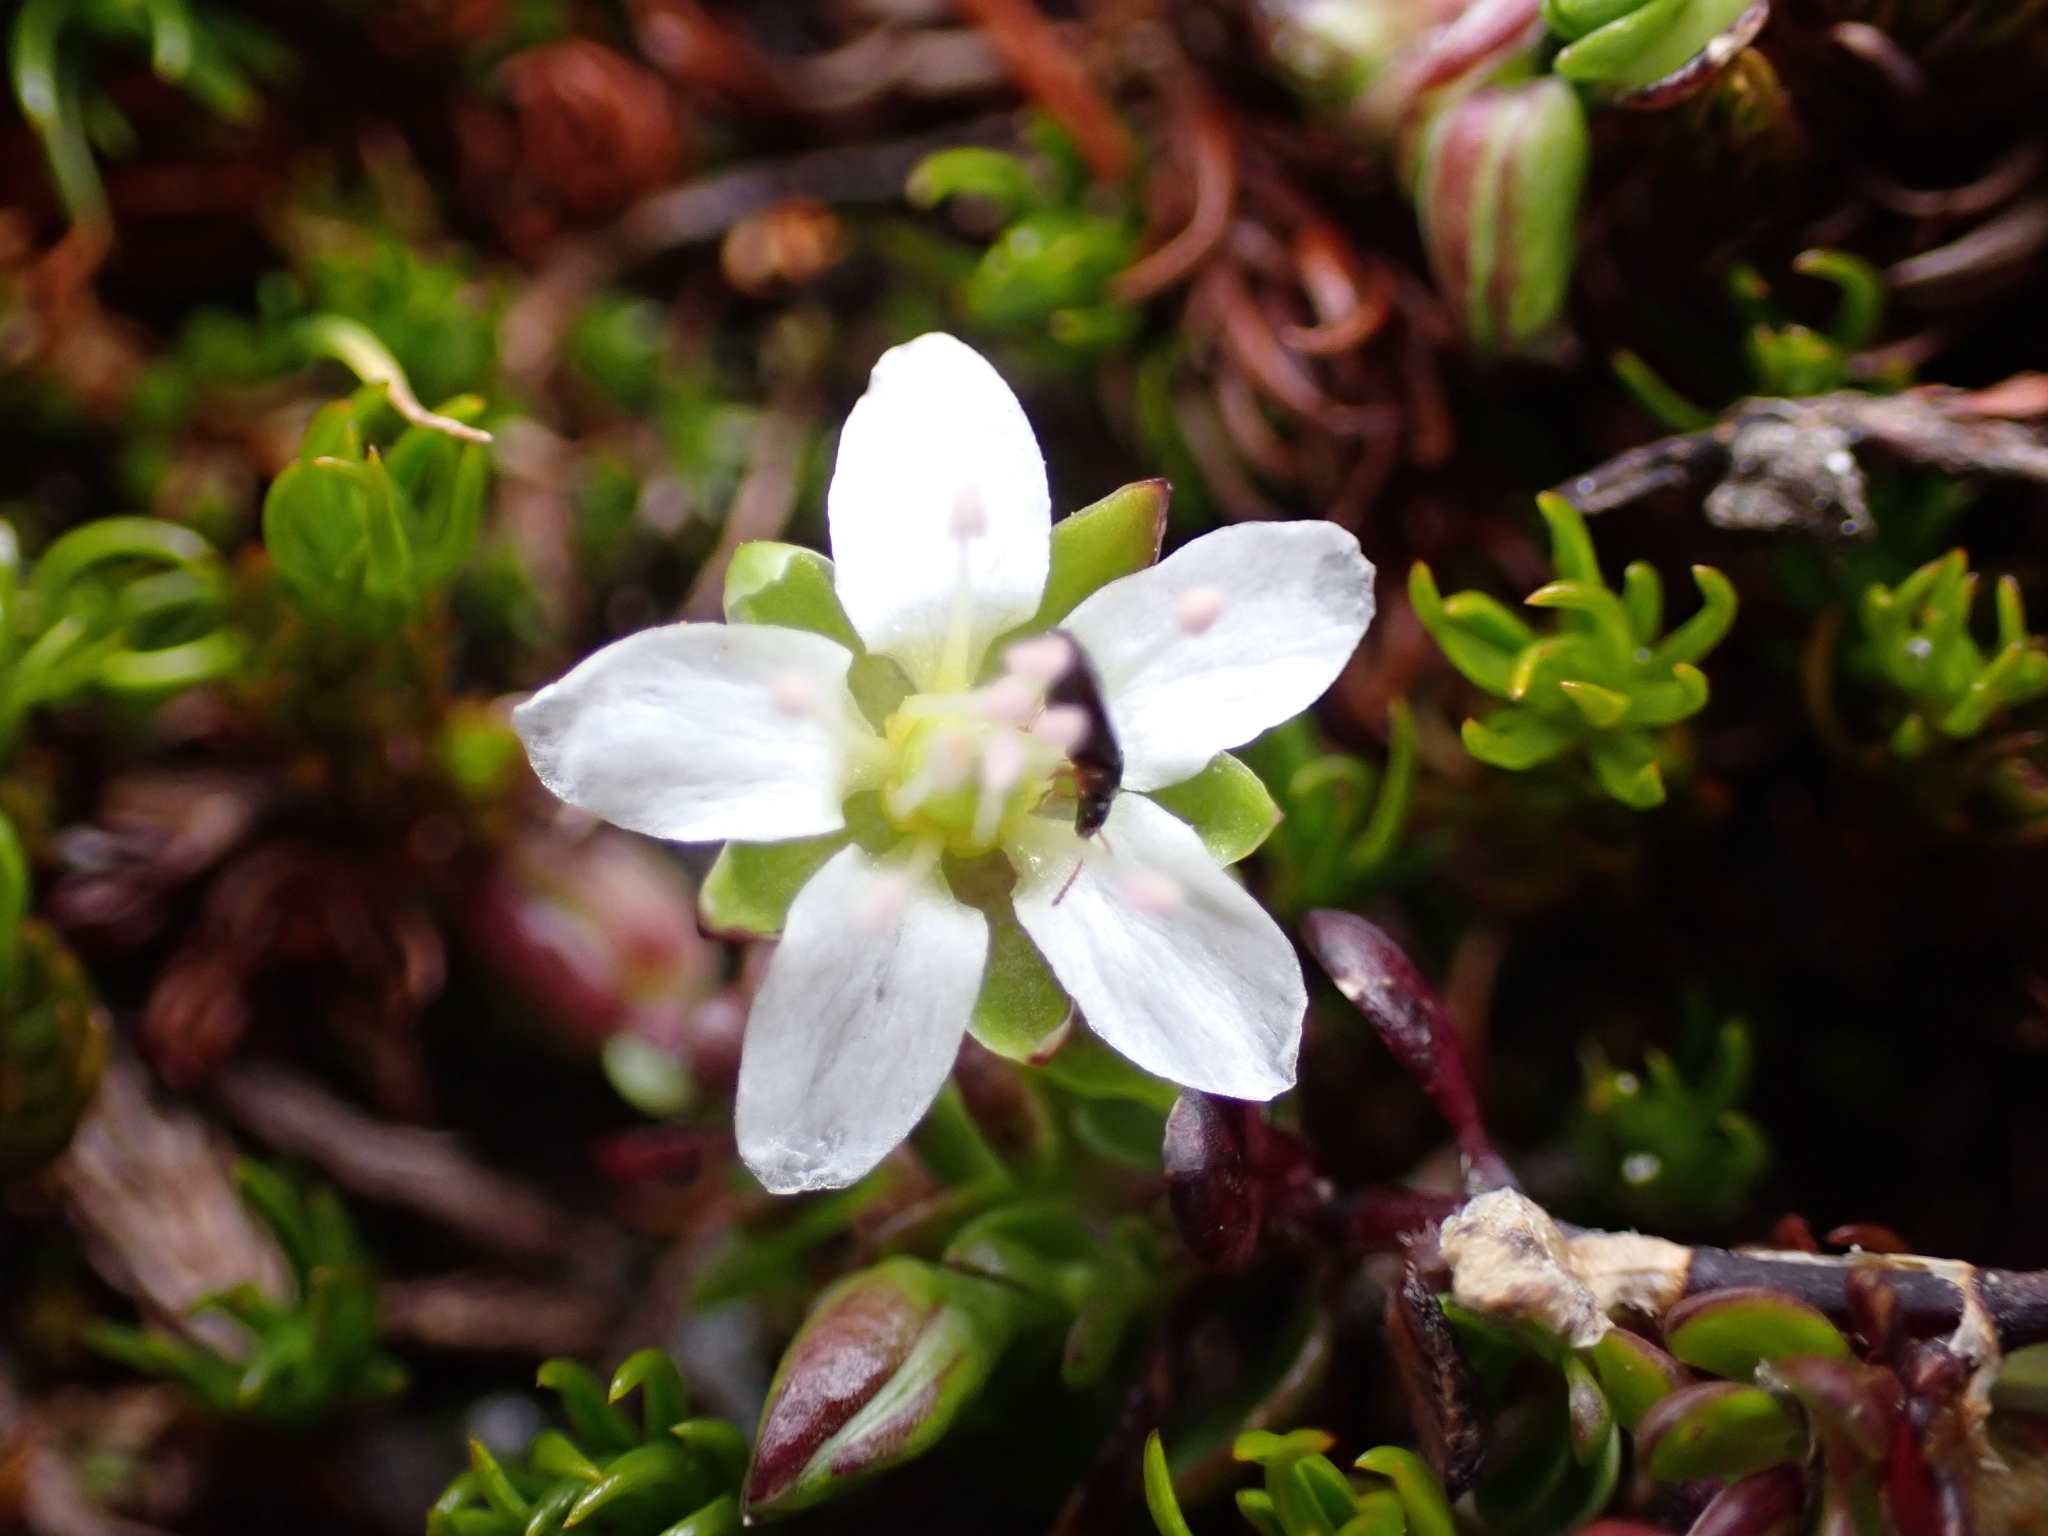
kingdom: Plantae
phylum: Tracheophyta
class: Magnoliopsida
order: Caryophyllales
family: Caryophyllaceae
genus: Arenaria
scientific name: Arenaria biflora
